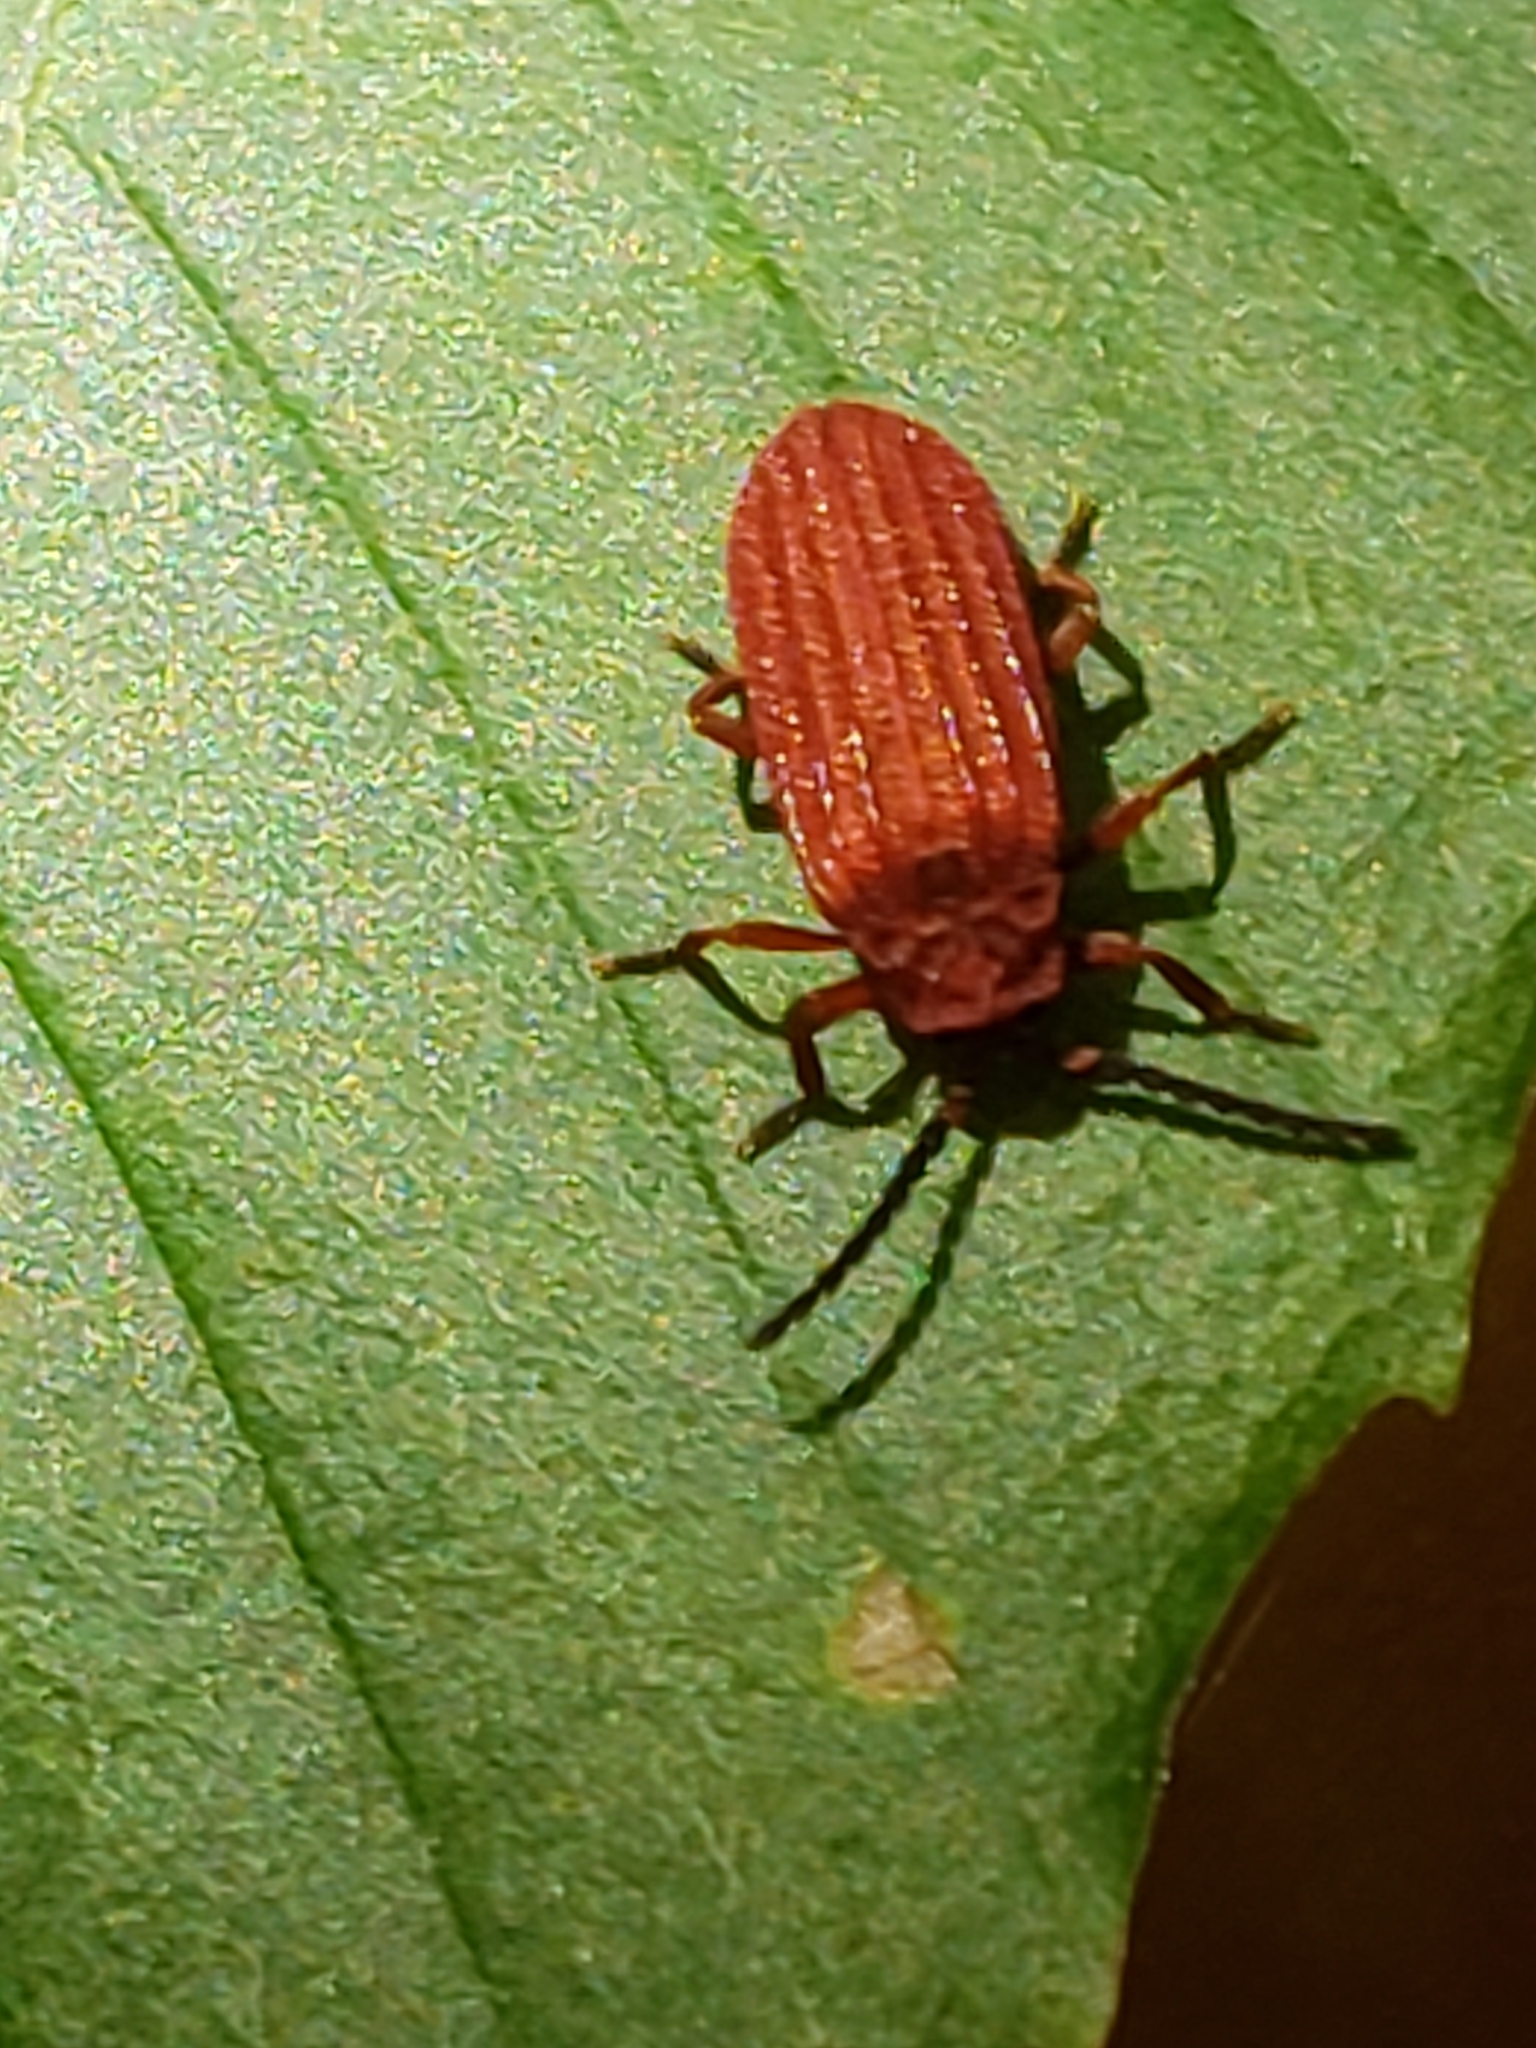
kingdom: Animalia
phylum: Arthropoda
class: Insecta
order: Coleoptera
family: Lycidae
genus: Punicealis
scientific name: Punicealis
